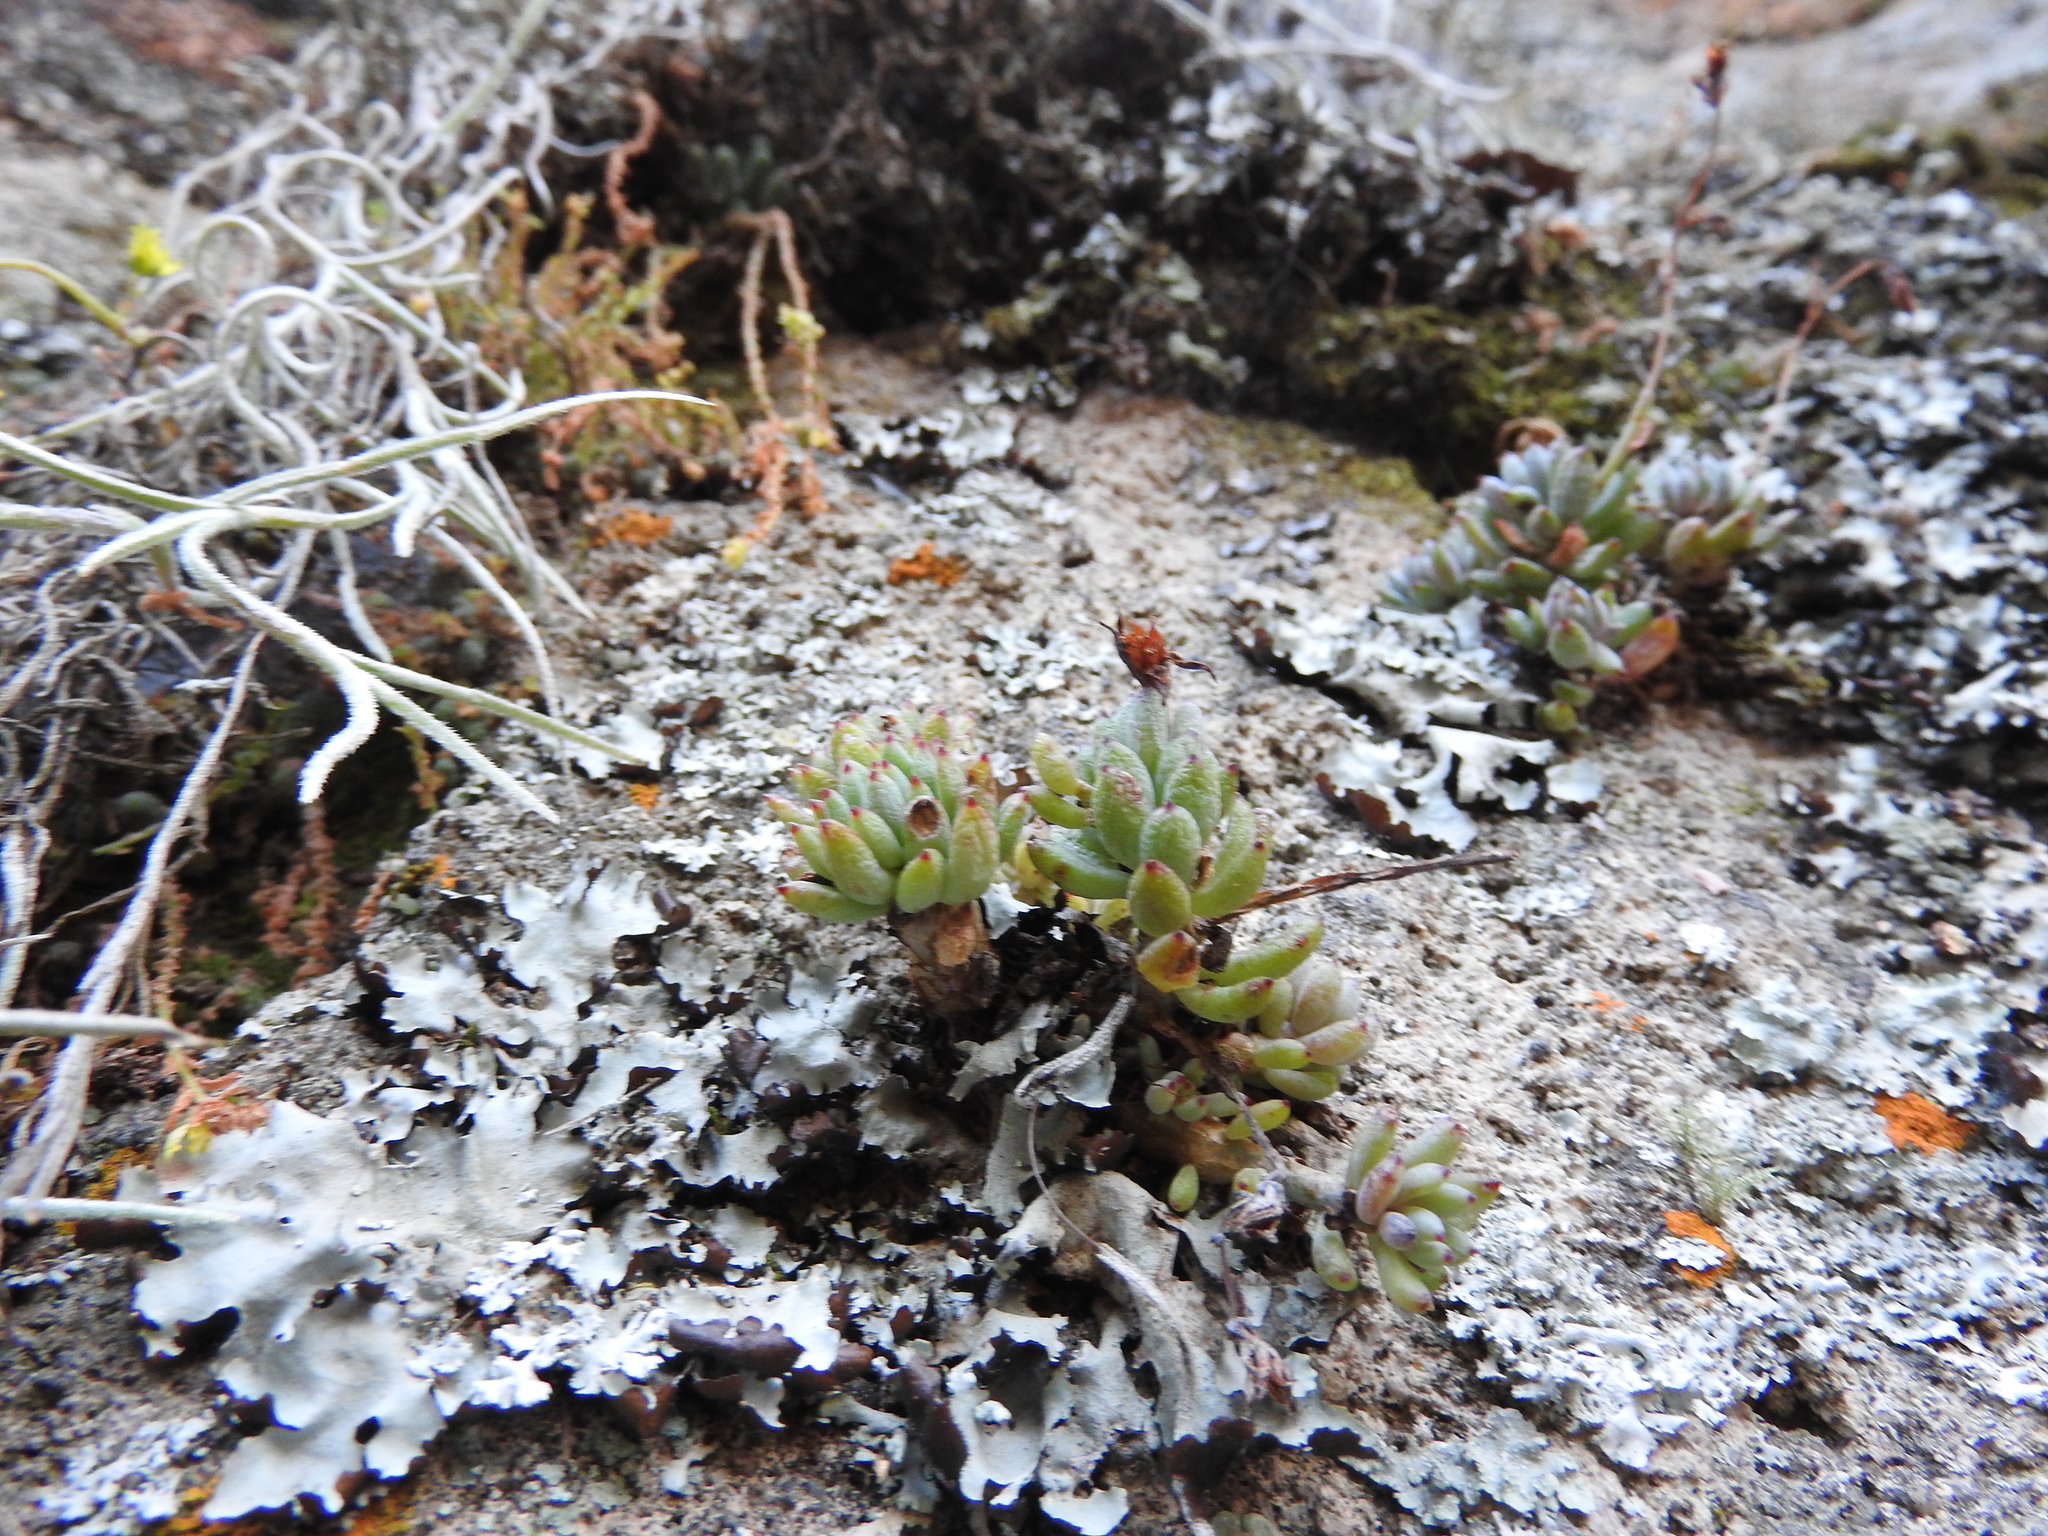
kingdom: Plantae
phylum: Tracheophyta
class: Magnoliopsida
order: Saxifragales
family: Crassulaceae
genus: Graptopetalum
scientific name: Graptopetalum pachyphyllum
